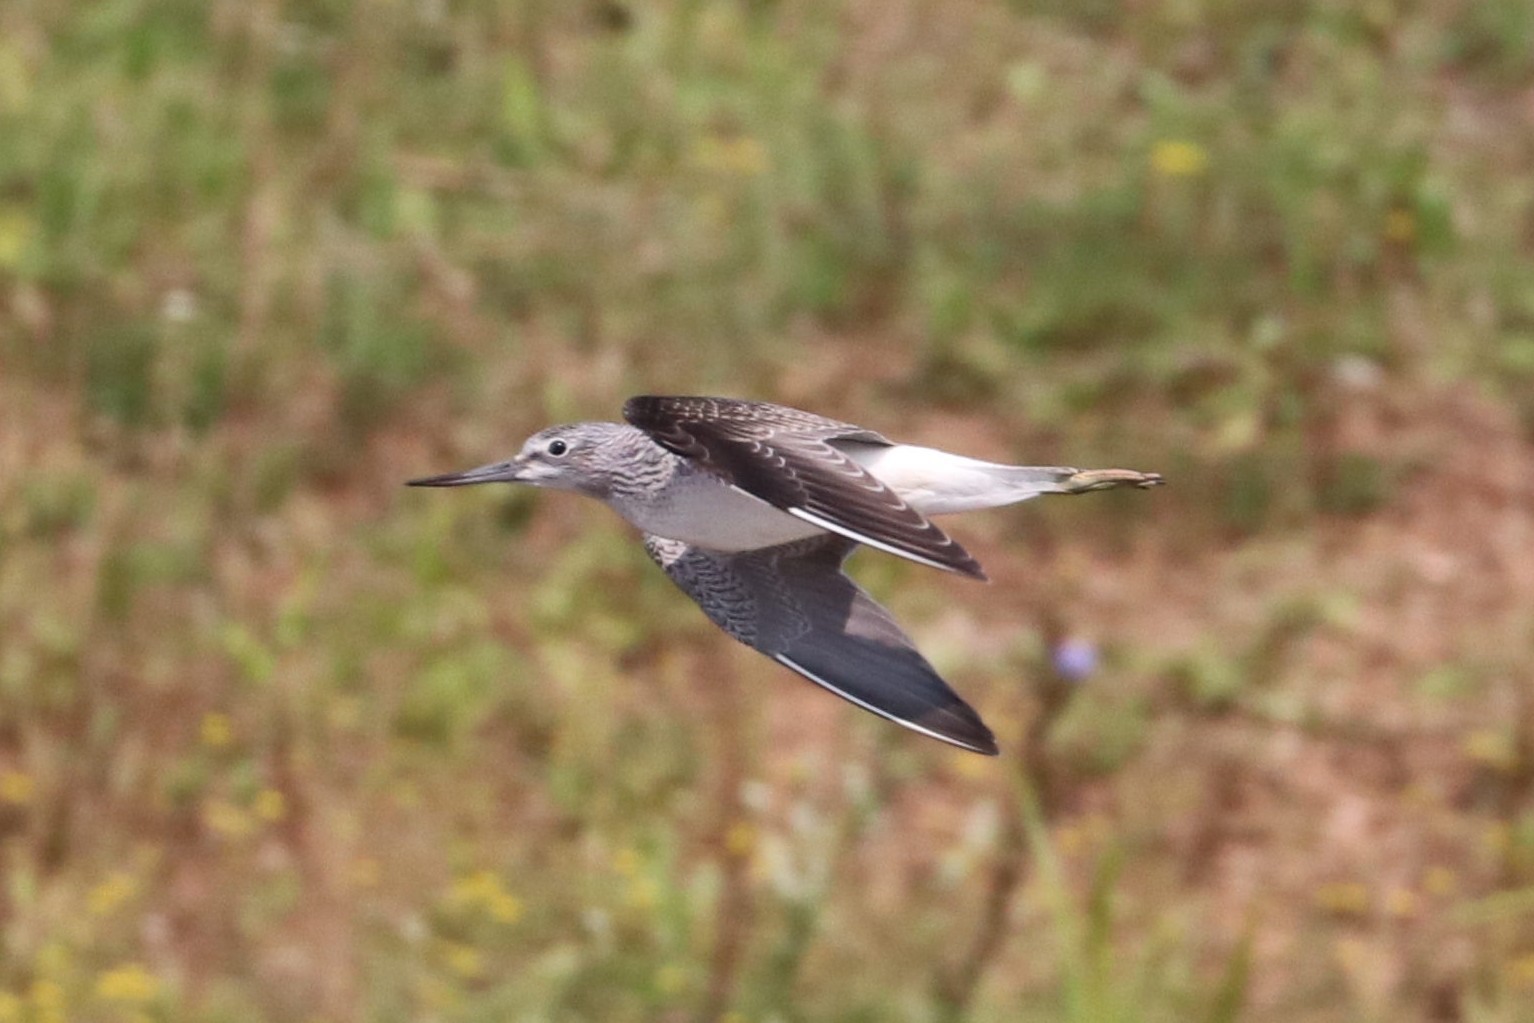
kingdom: Animalia
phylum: Chordata
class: Aves
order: Charadriiformes
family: Scolopacidae
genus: Tringa
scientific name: Tringa nebularia
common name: Common greenshank
